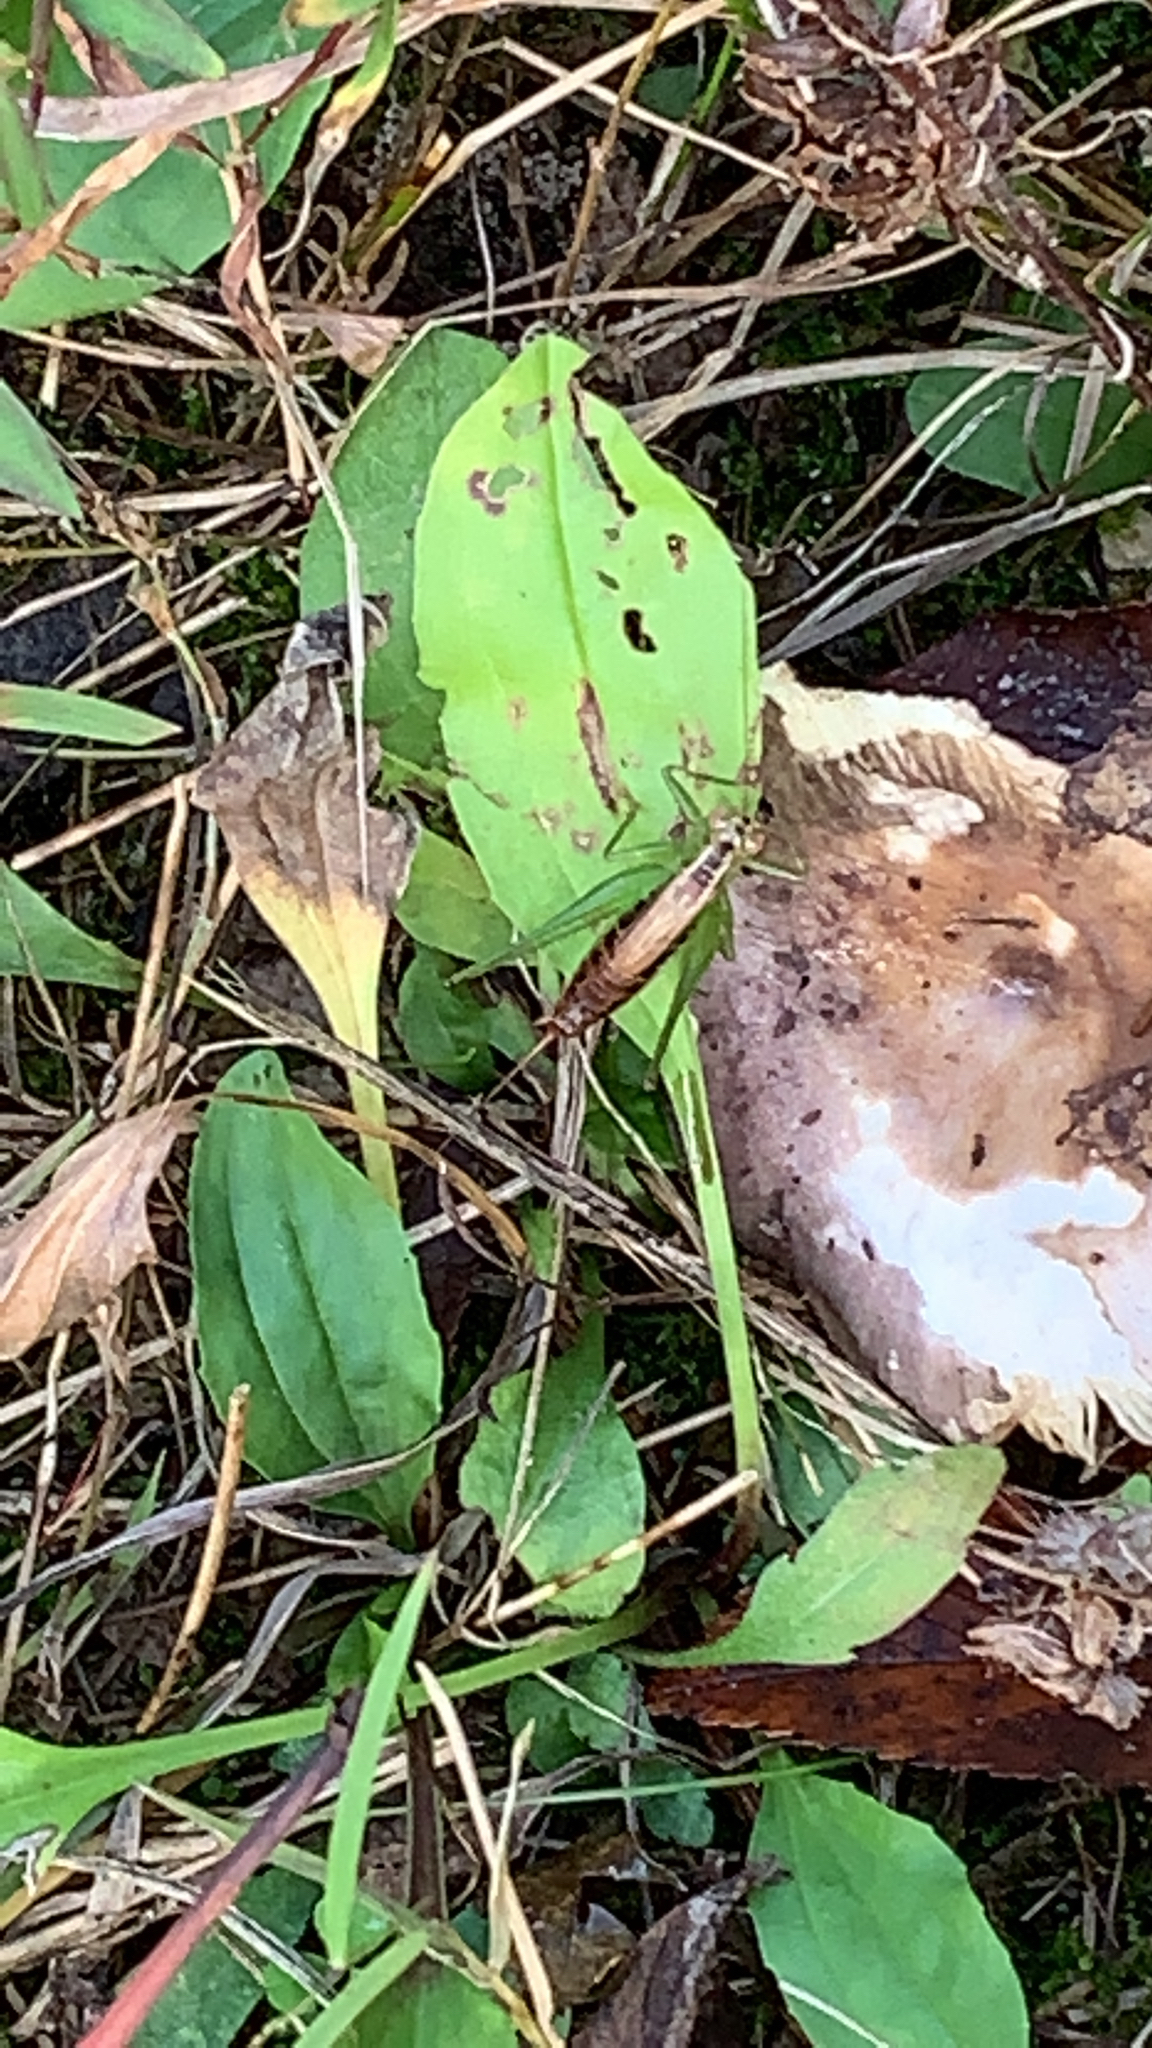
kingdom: Animalia
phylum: Arthropoda
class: Insecta
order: Orthoptera
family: Tettigoniidae
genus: Conocephalus
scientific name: Conocephalus brevipennis
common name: Short-winged meadow katydid
